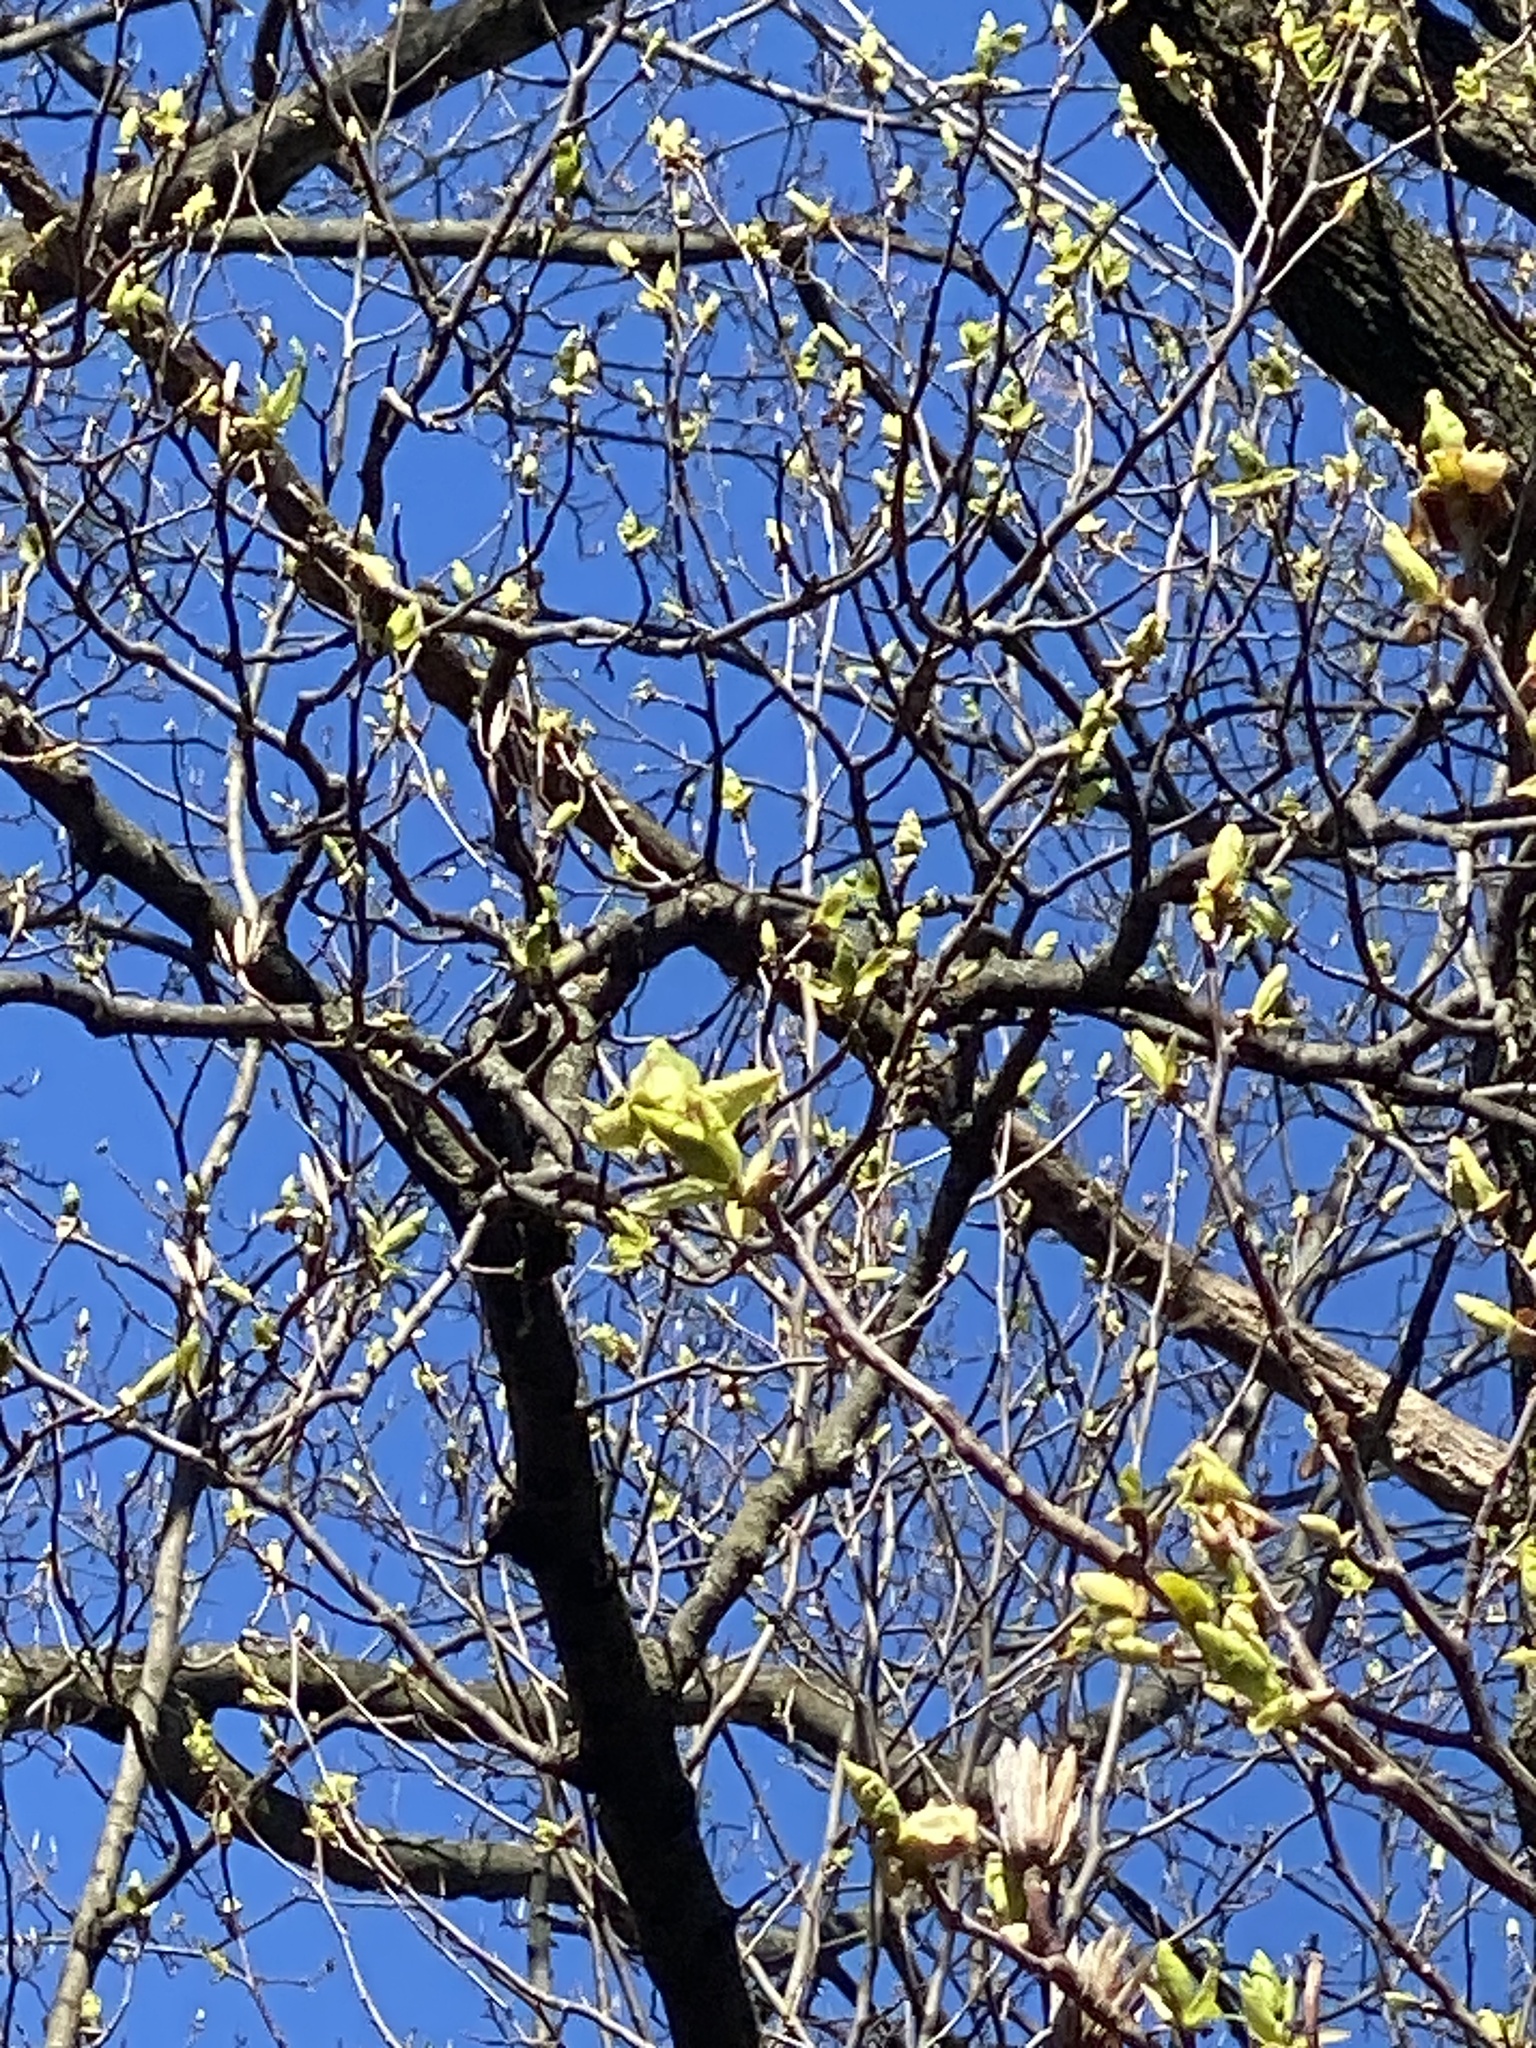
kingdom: Plantae
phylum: Tracheophyta
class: Magnoliopsida
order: Magnoliales
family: Magnoliaceae
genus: Liriodendron
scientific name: Liriodendron tulipifera
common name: Tulip tree
